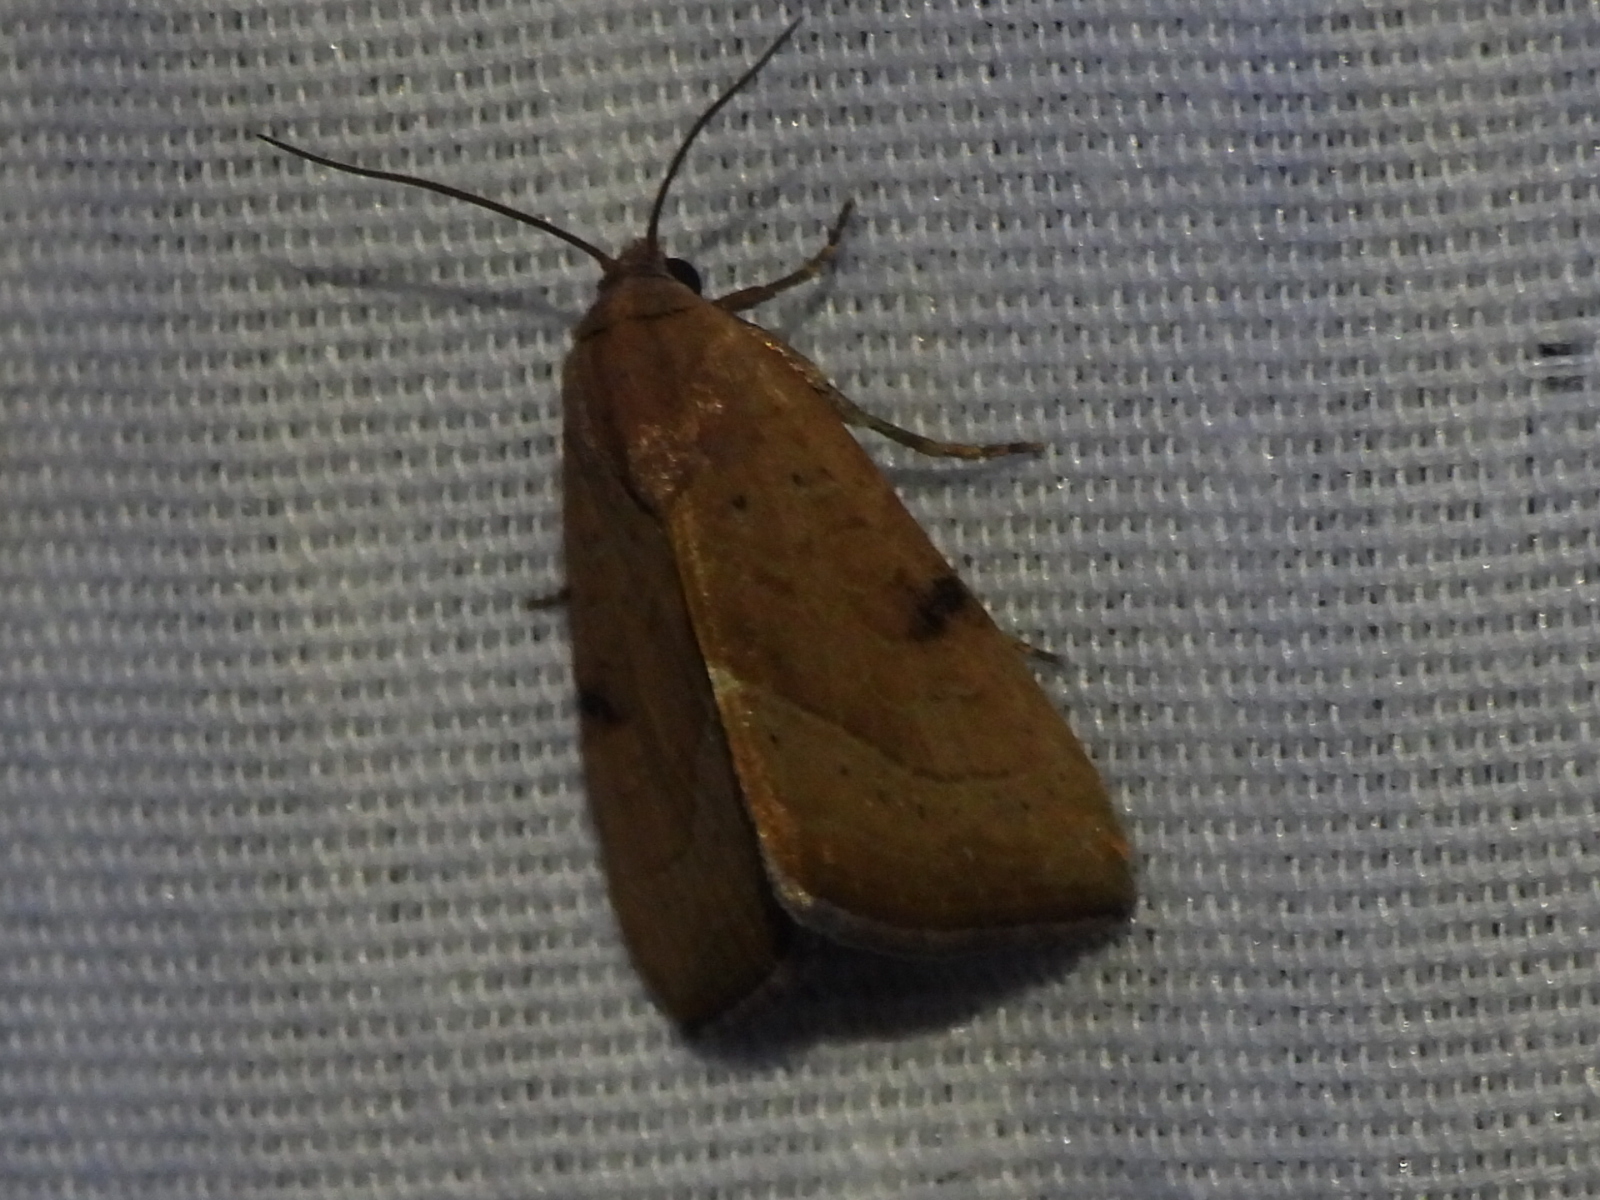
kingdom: Animalia
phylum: Arthropoda
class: Insecta
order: Lepidoptera
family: Noctuidae
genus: Galgula
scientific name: Galgula partita
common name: Wedgeling
